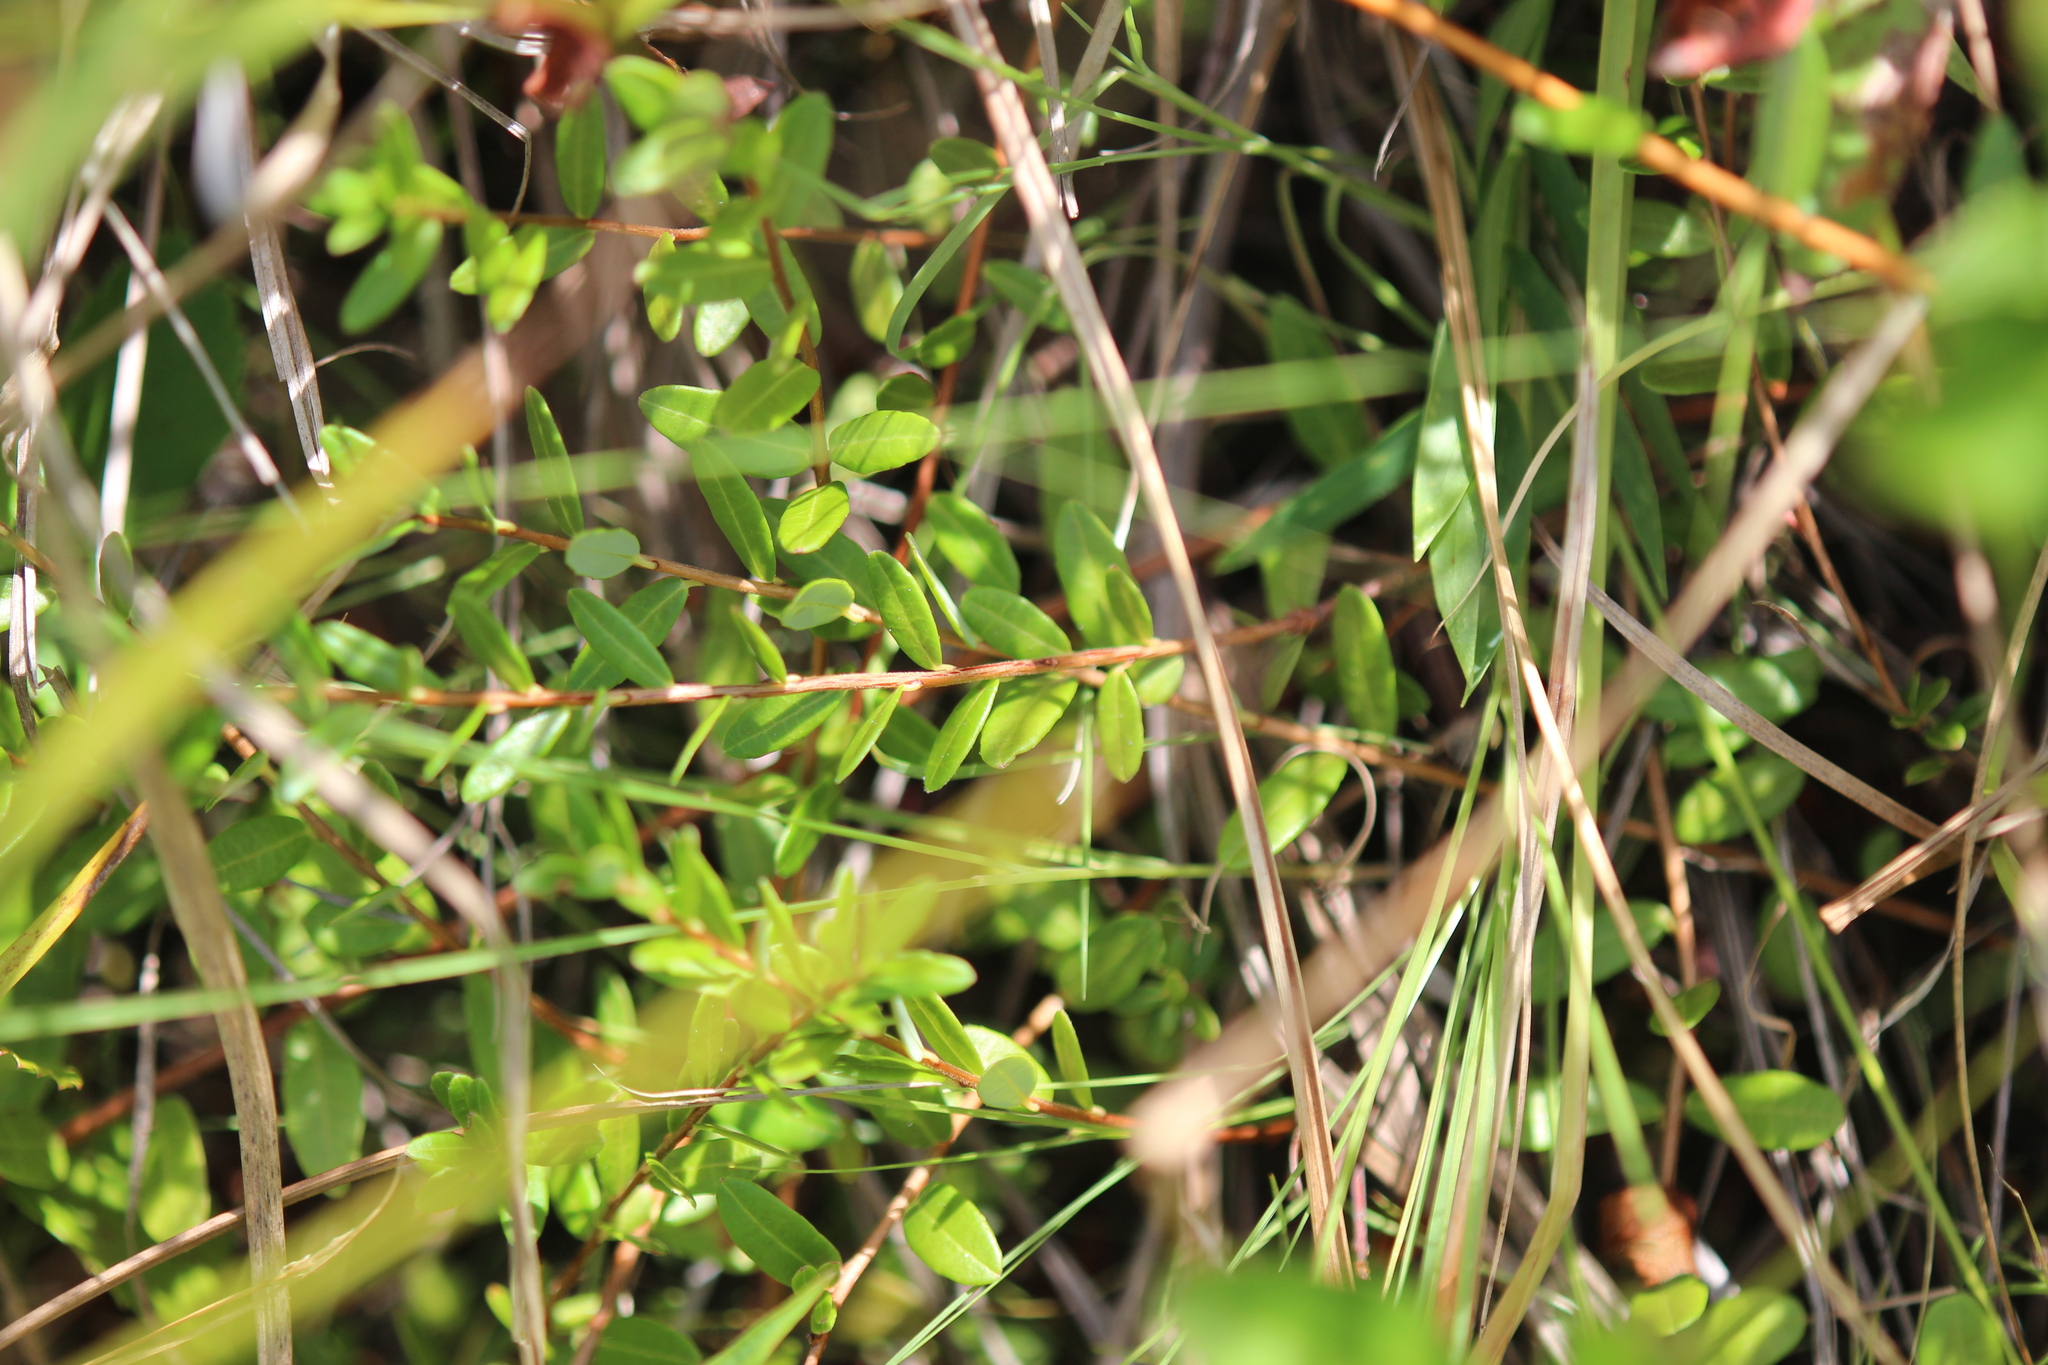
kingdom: Plantae
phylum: Tracheophyta
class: Magnoliopsida
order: Ericales
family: Ericaceae
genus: Vaccinium
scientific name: Vaccinium macrocarpon
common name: American cranberry
